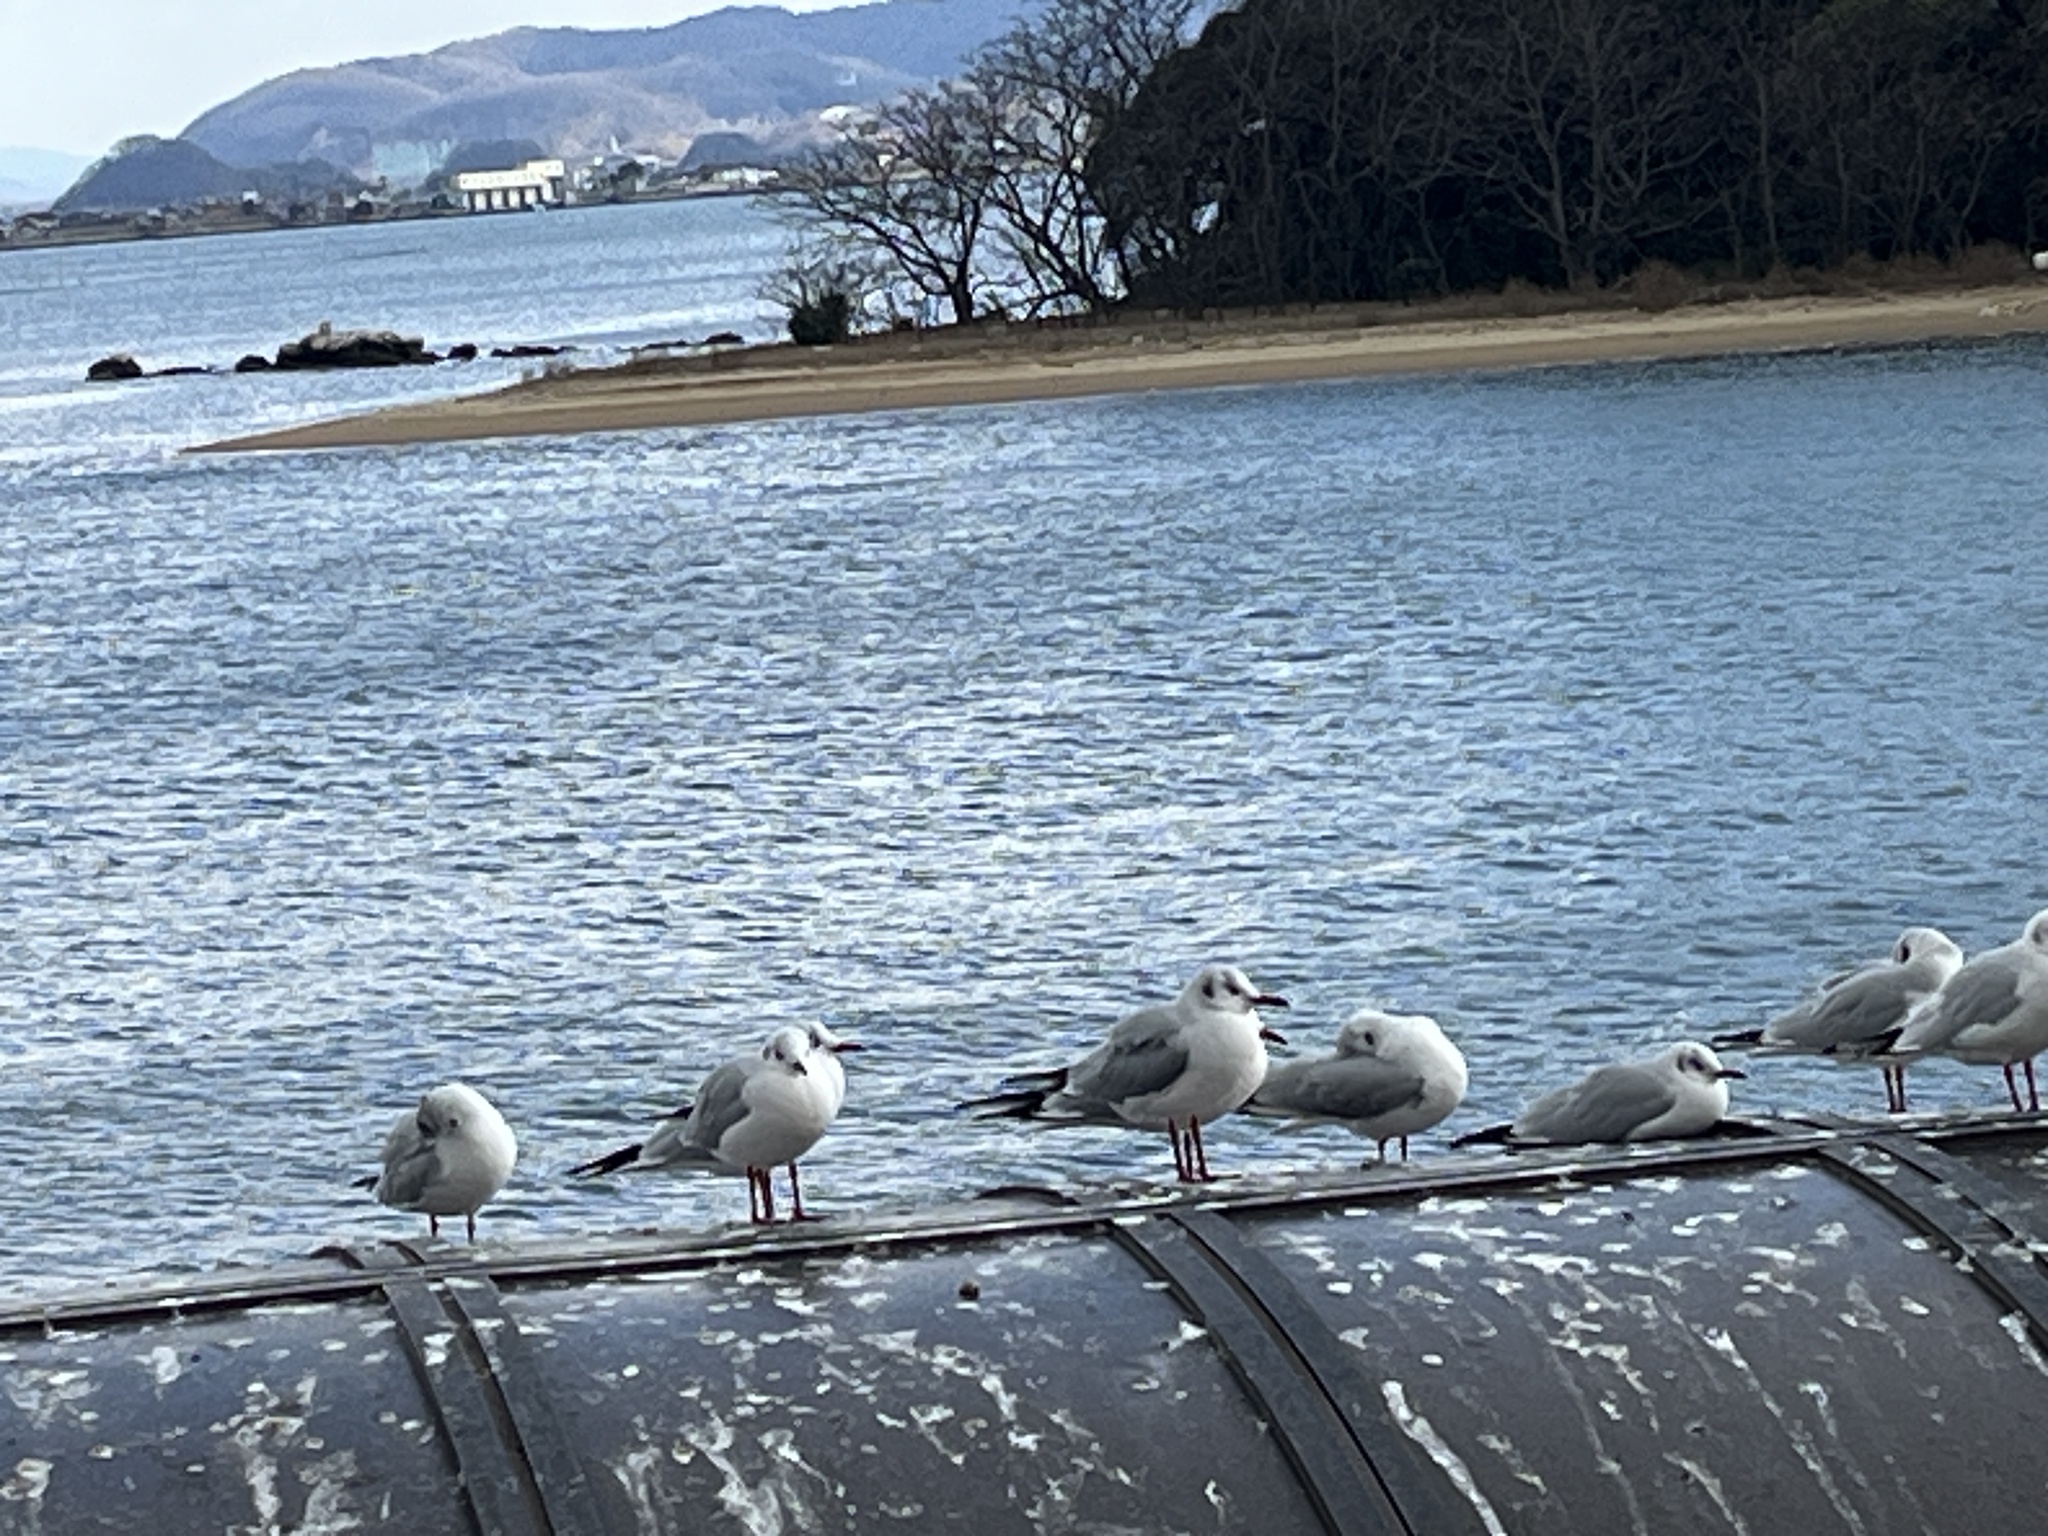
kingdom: Animalia
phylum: Chordata
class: Aves
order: Charadriiformes
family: Laridae
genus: Chroicocephalus
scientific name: Chroicocephalus ridibundus
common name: Black-headed gull
